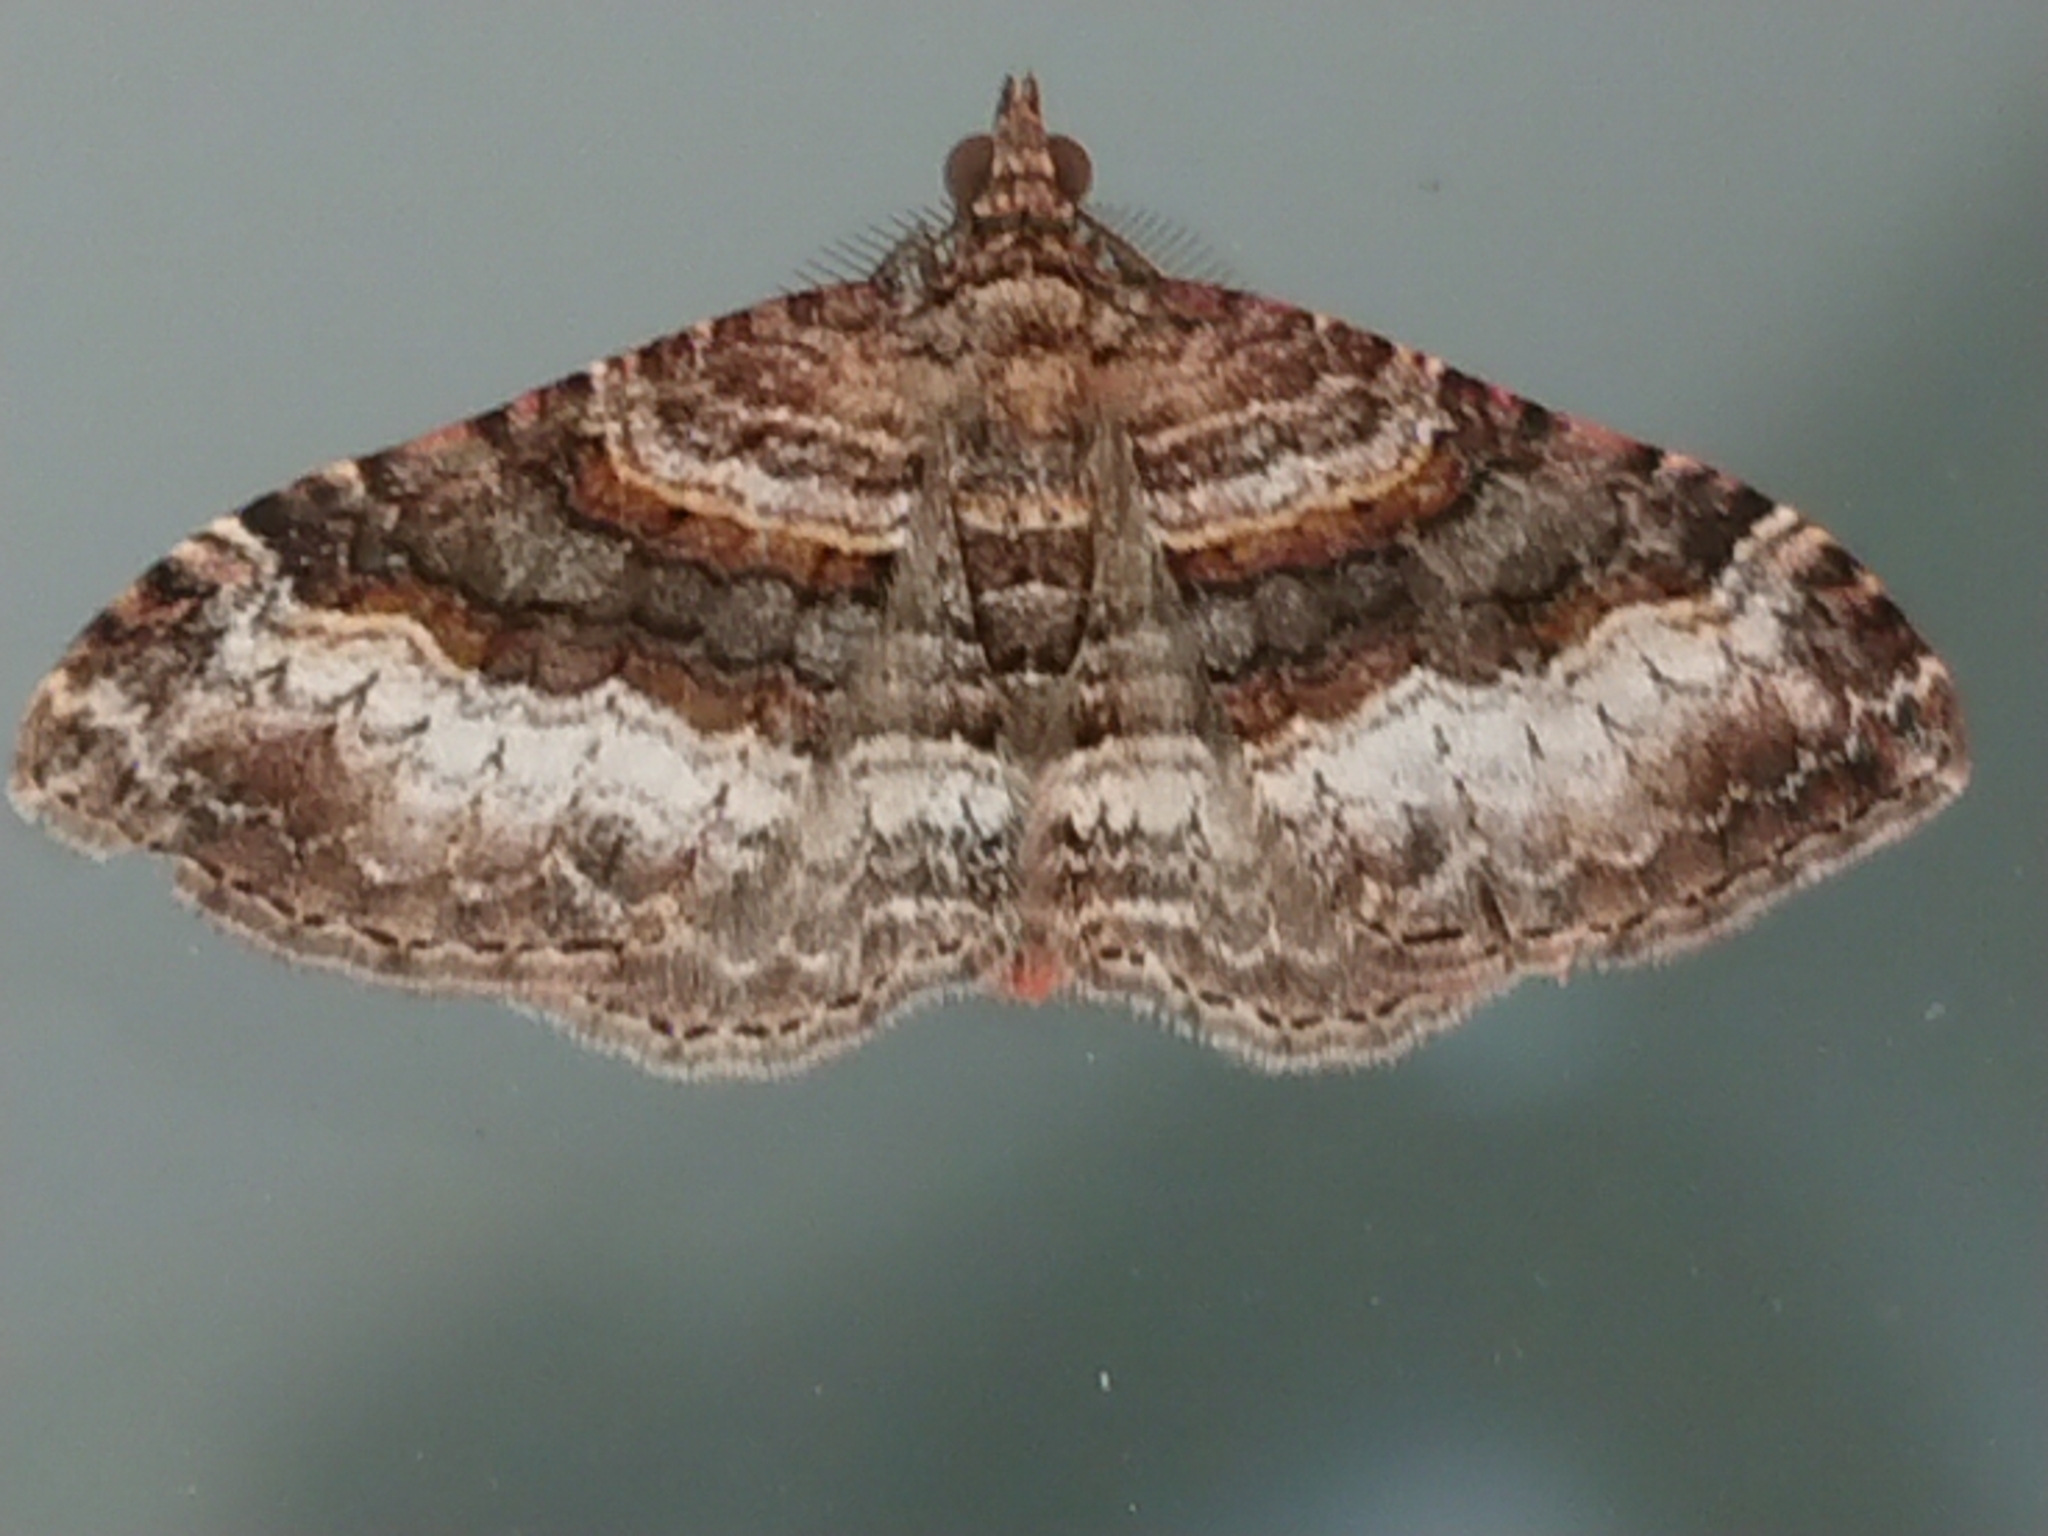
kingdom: Animalia
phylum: Arthropoda
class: Insecta
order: Lepidoptera
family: Geometridae
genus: Epyaxa
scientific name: Epyaxa lucidata
